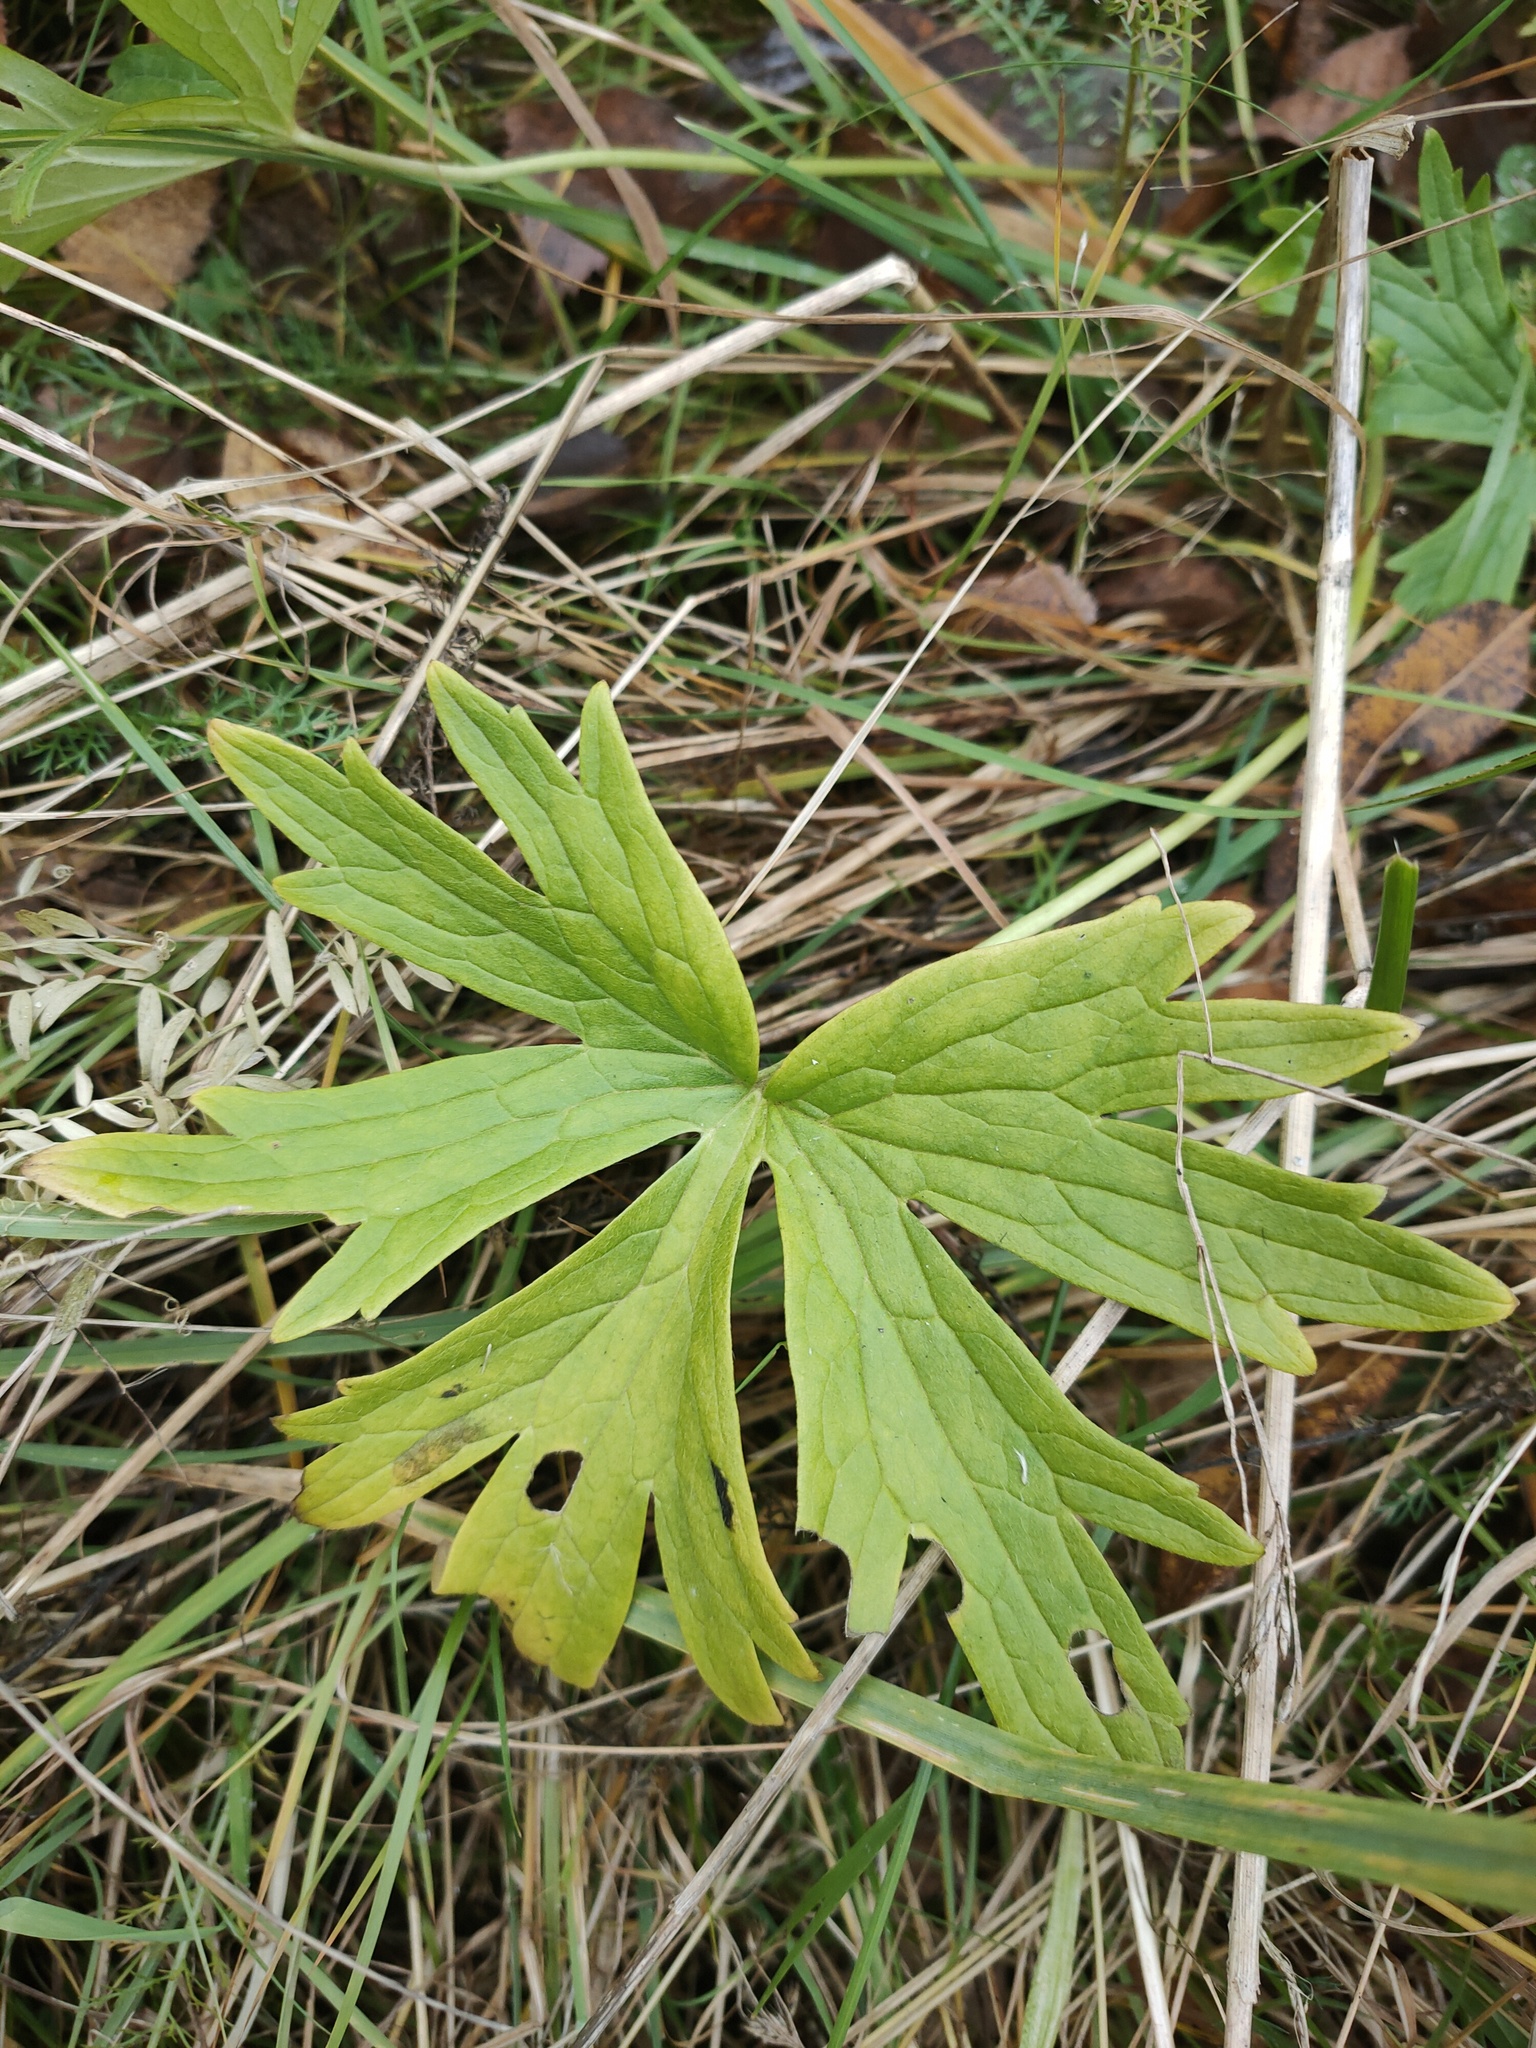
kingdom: Plantae
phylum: Tracheophyta
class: Magnoliopsida
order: Ranunculales
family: Ranunculaceae
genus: Ranunculus
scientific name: Ranunculus acris
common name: Meadow buttercup
